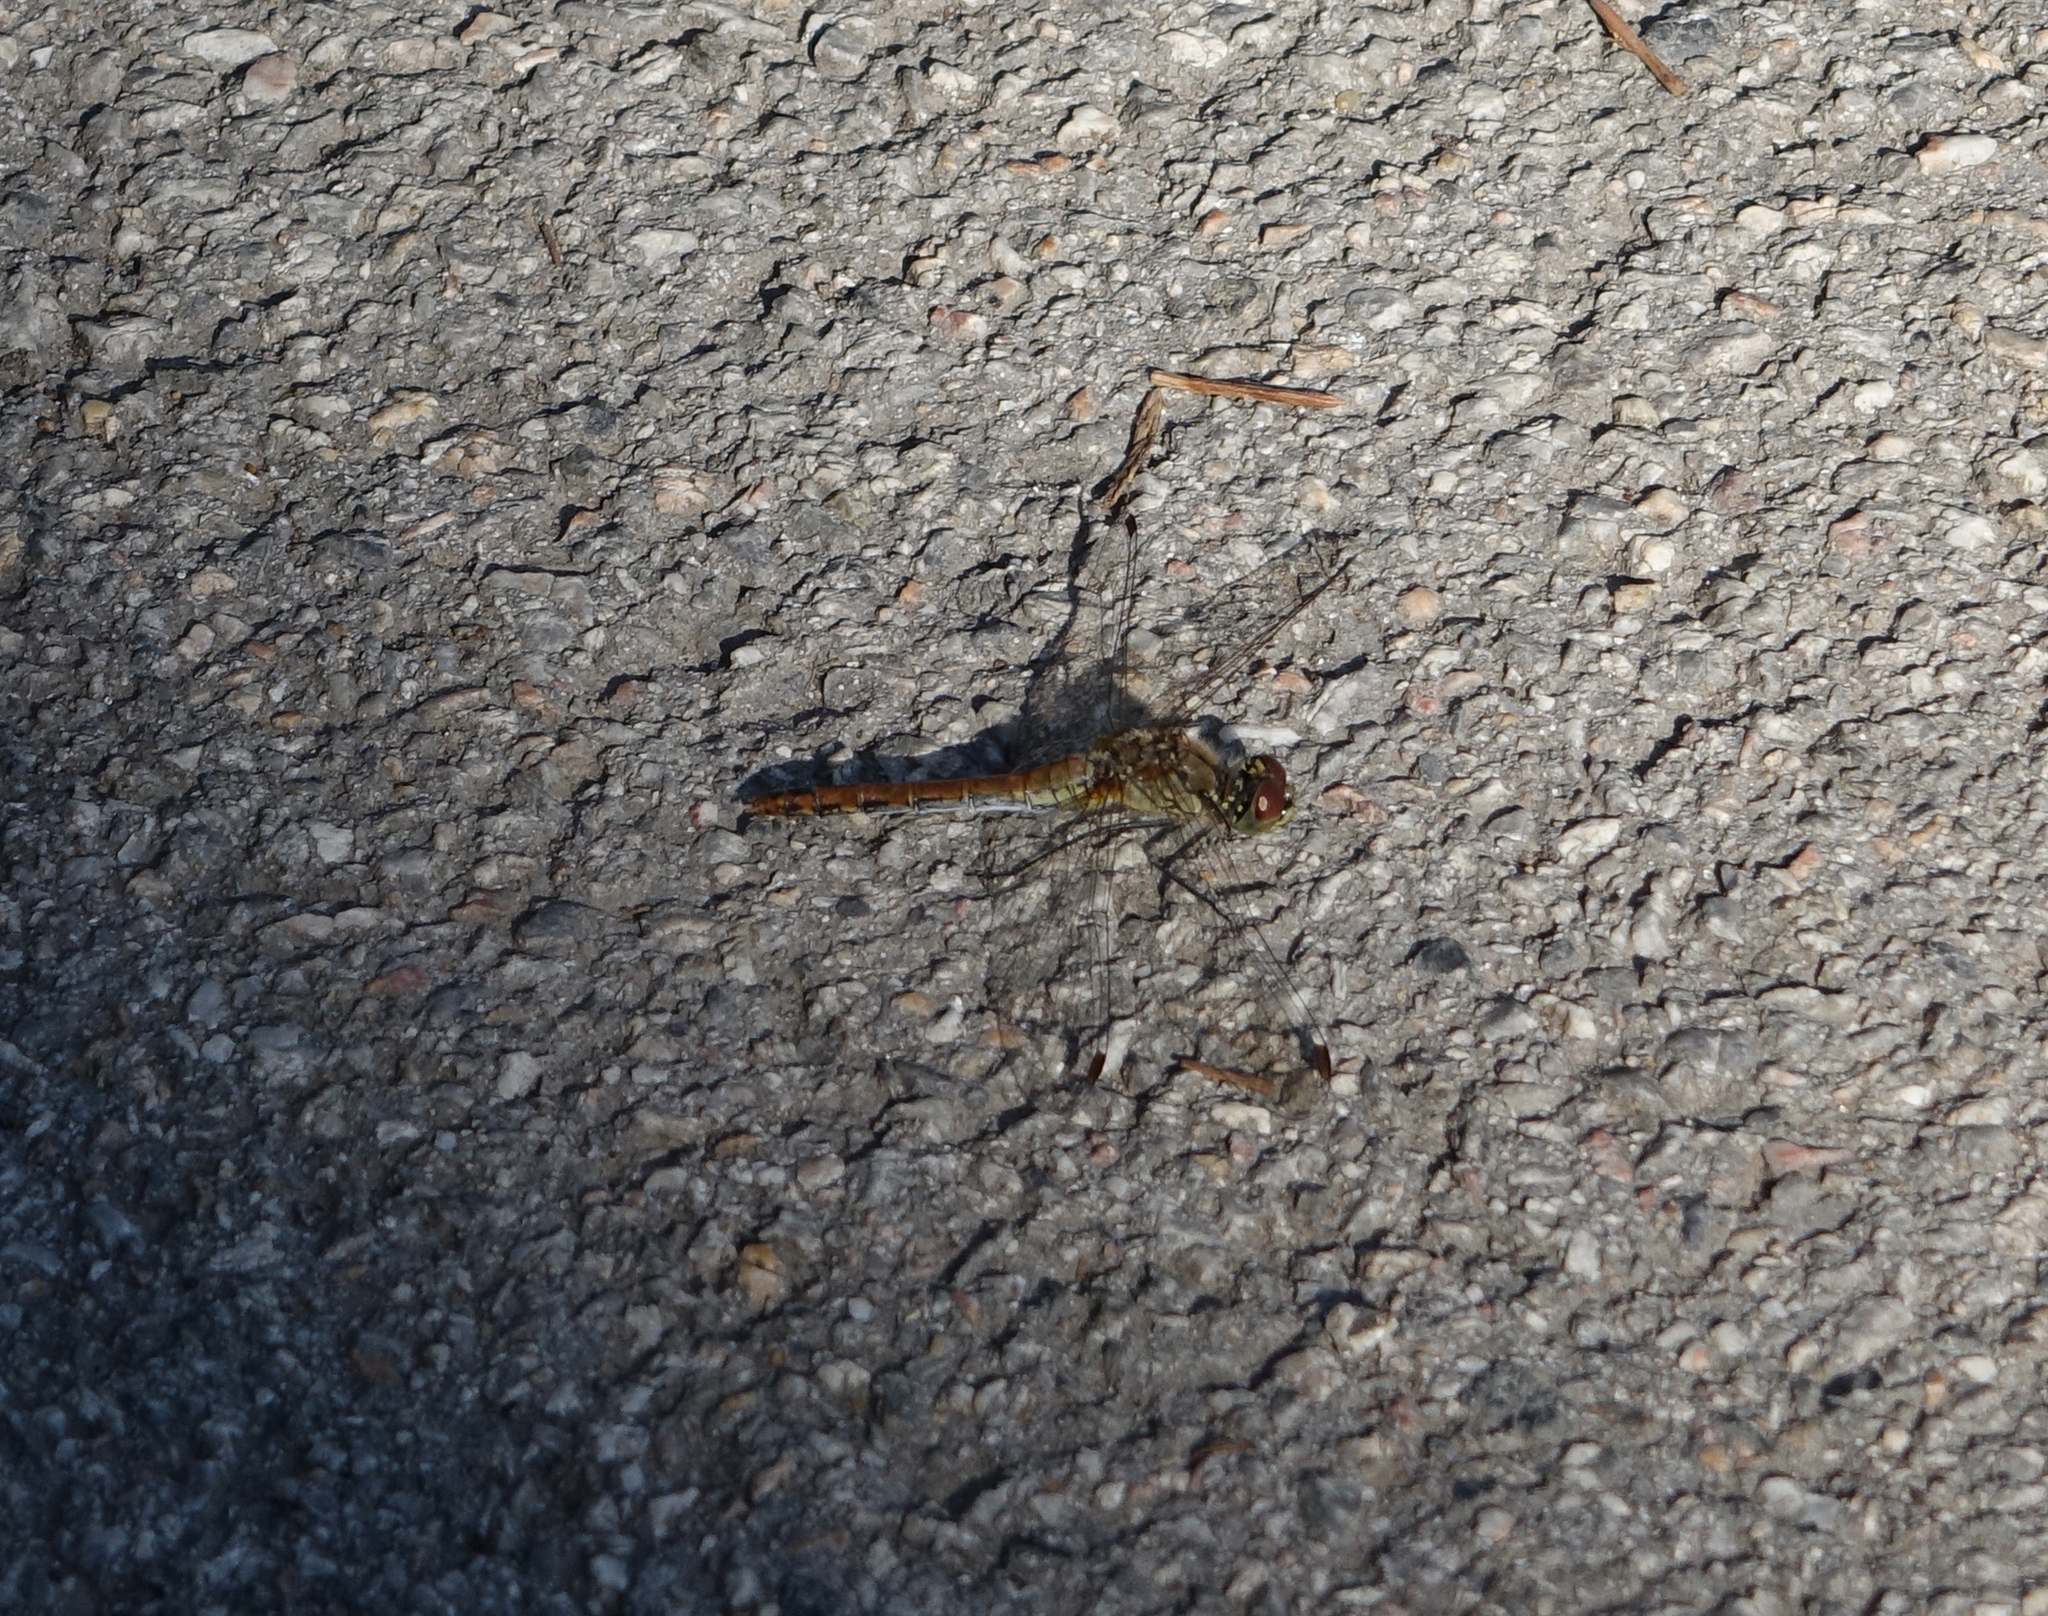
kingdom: Animalia
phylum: Arthropoda
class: Insecta
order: Odonata
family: Libellulidae
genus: Sympetrum
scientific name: Sympetrum sanguineum
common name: Ruddy darter
